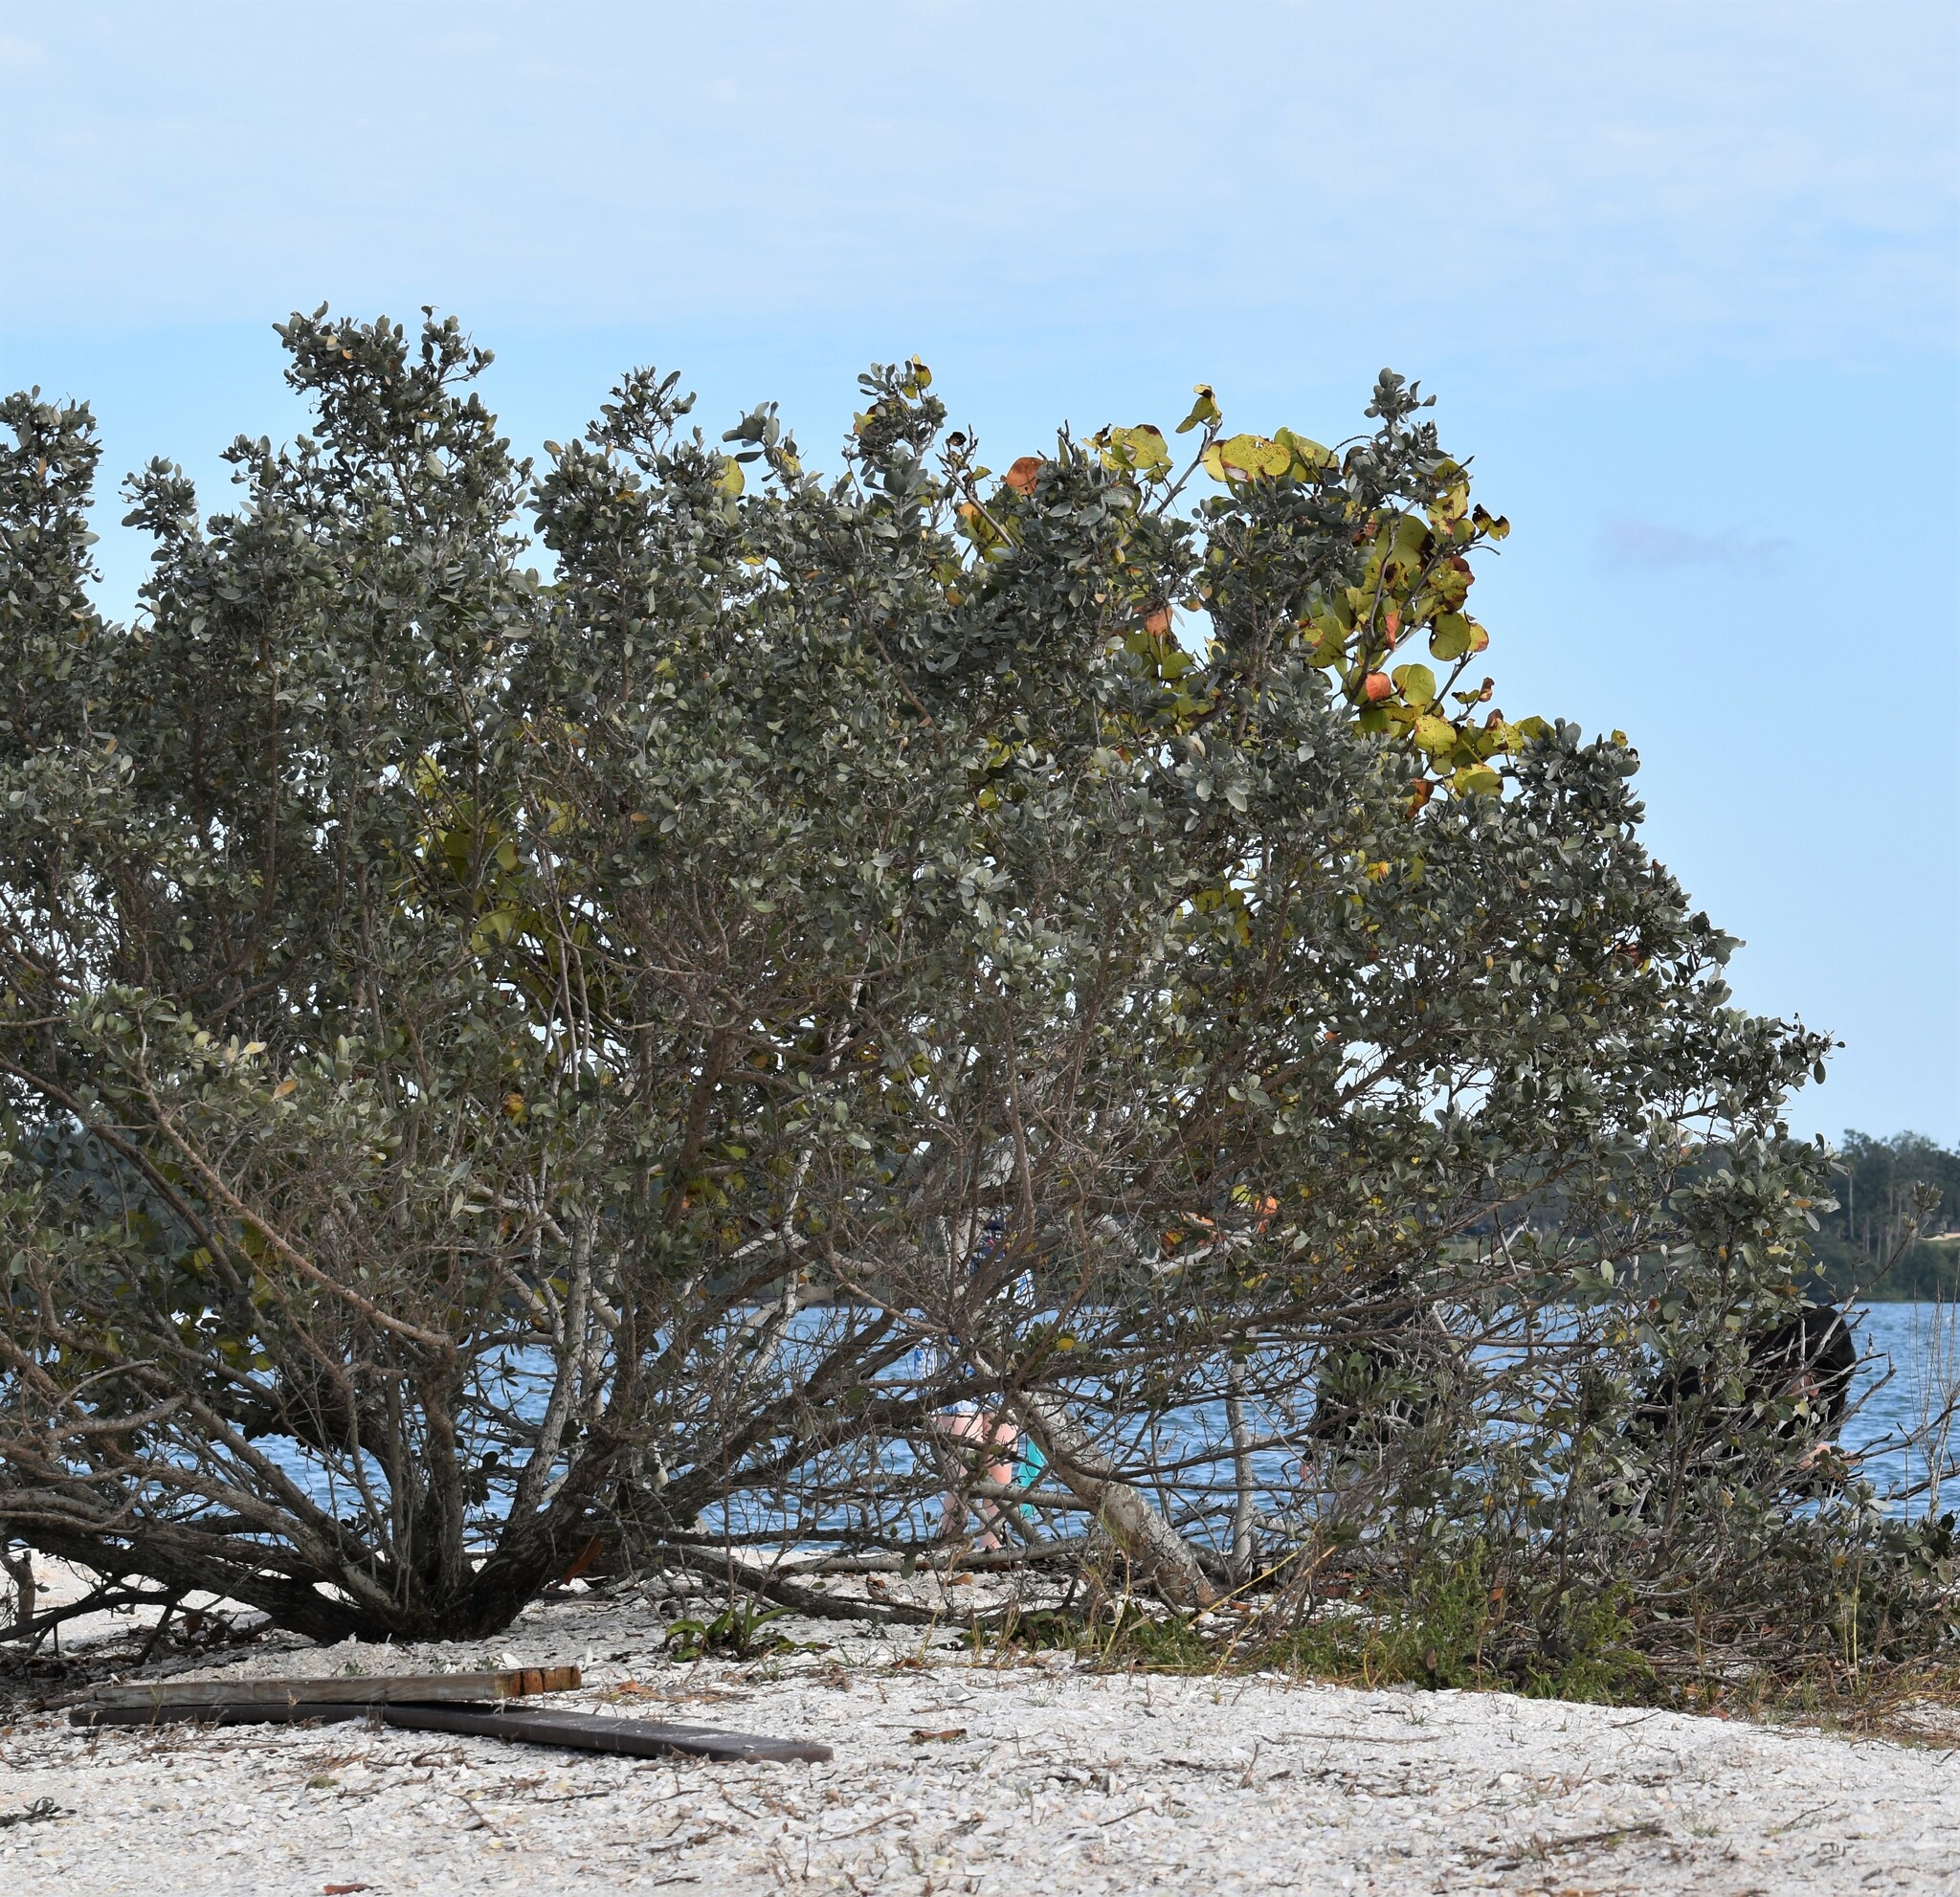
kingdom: Plantae
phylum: Tracheophyta
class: Magnoliopsida
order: Myrtales
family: Combretaceae
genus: Conocarpus
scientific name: Conocarpus erectus
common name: Button mangrove
